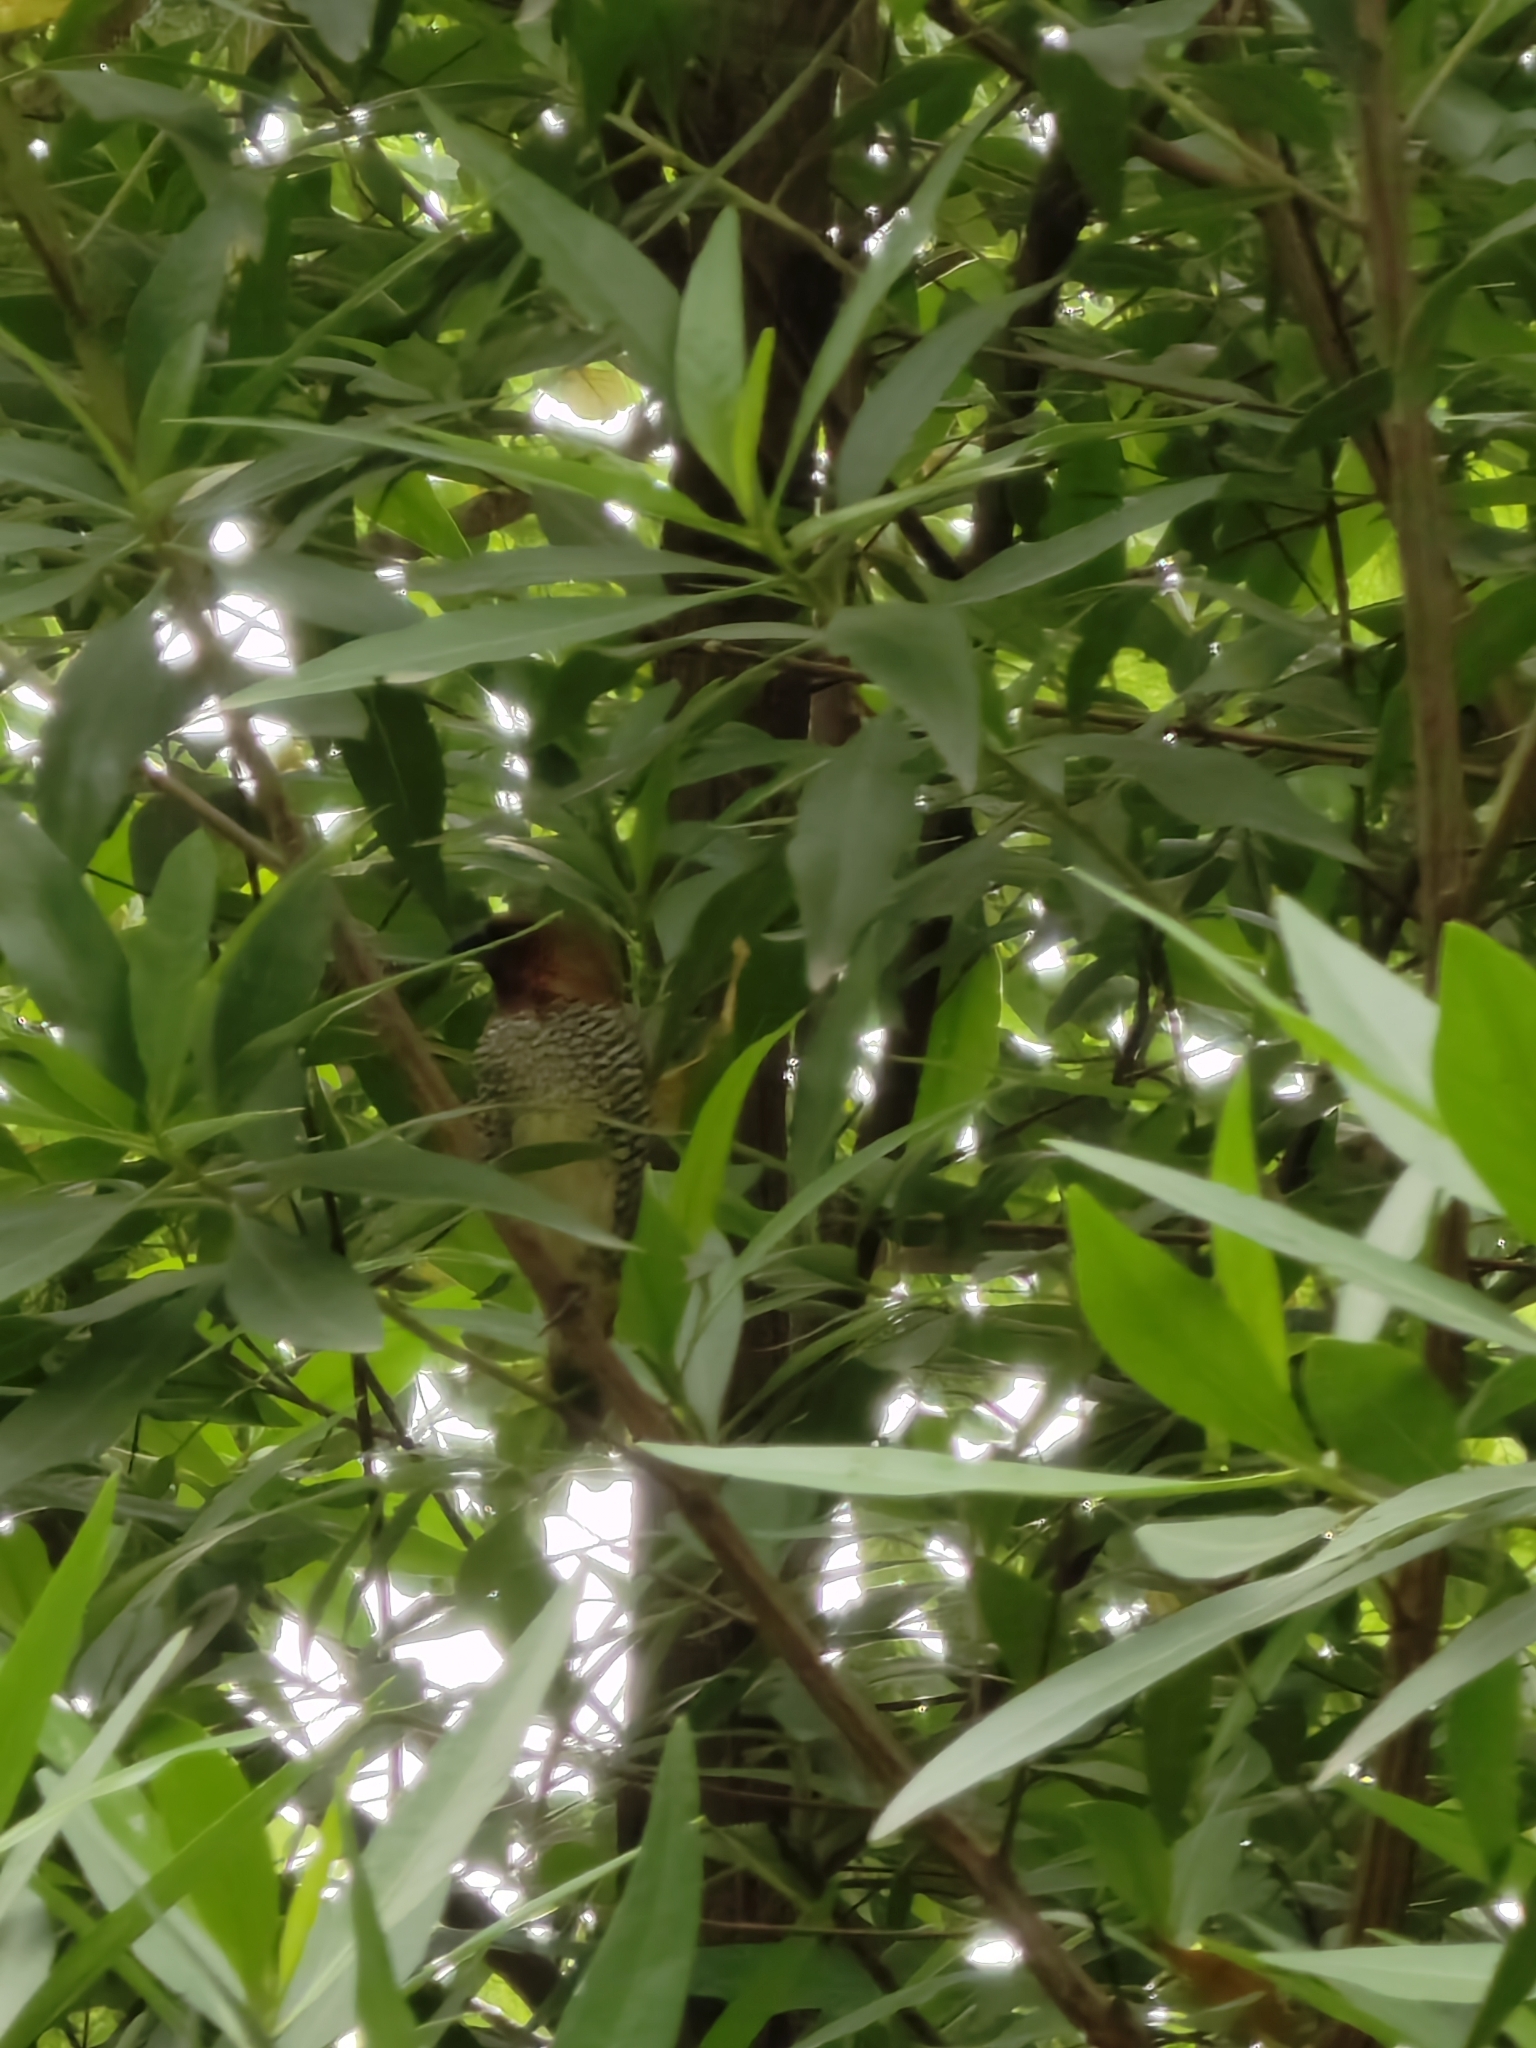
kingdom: Animalia
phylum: Chordata
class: Aves
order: Passeriformes
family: Estrildidae
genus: Lonchura
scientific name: Lonchura punctulata
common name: Scaly-breasted munia
